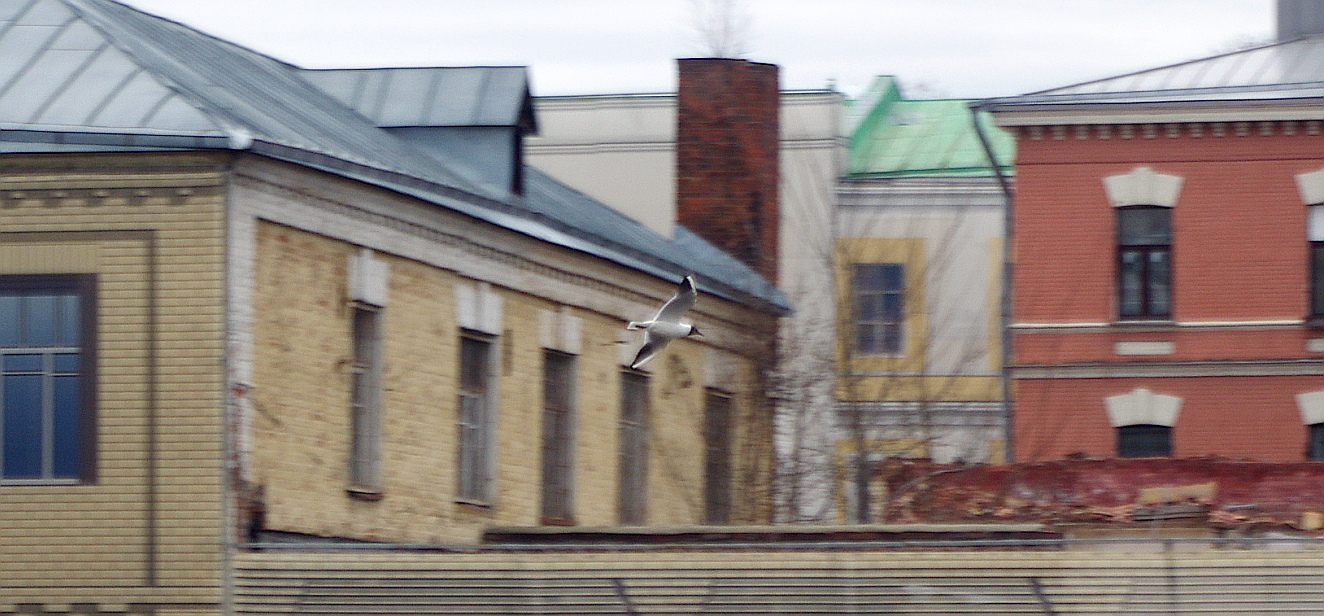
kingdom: Animalia
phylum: Chordata
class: Aves
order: Charadriiformes
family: Laridae
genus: Chroicocephalus
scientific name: Chroicocephalus ridibundus
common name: Black-headed gull
